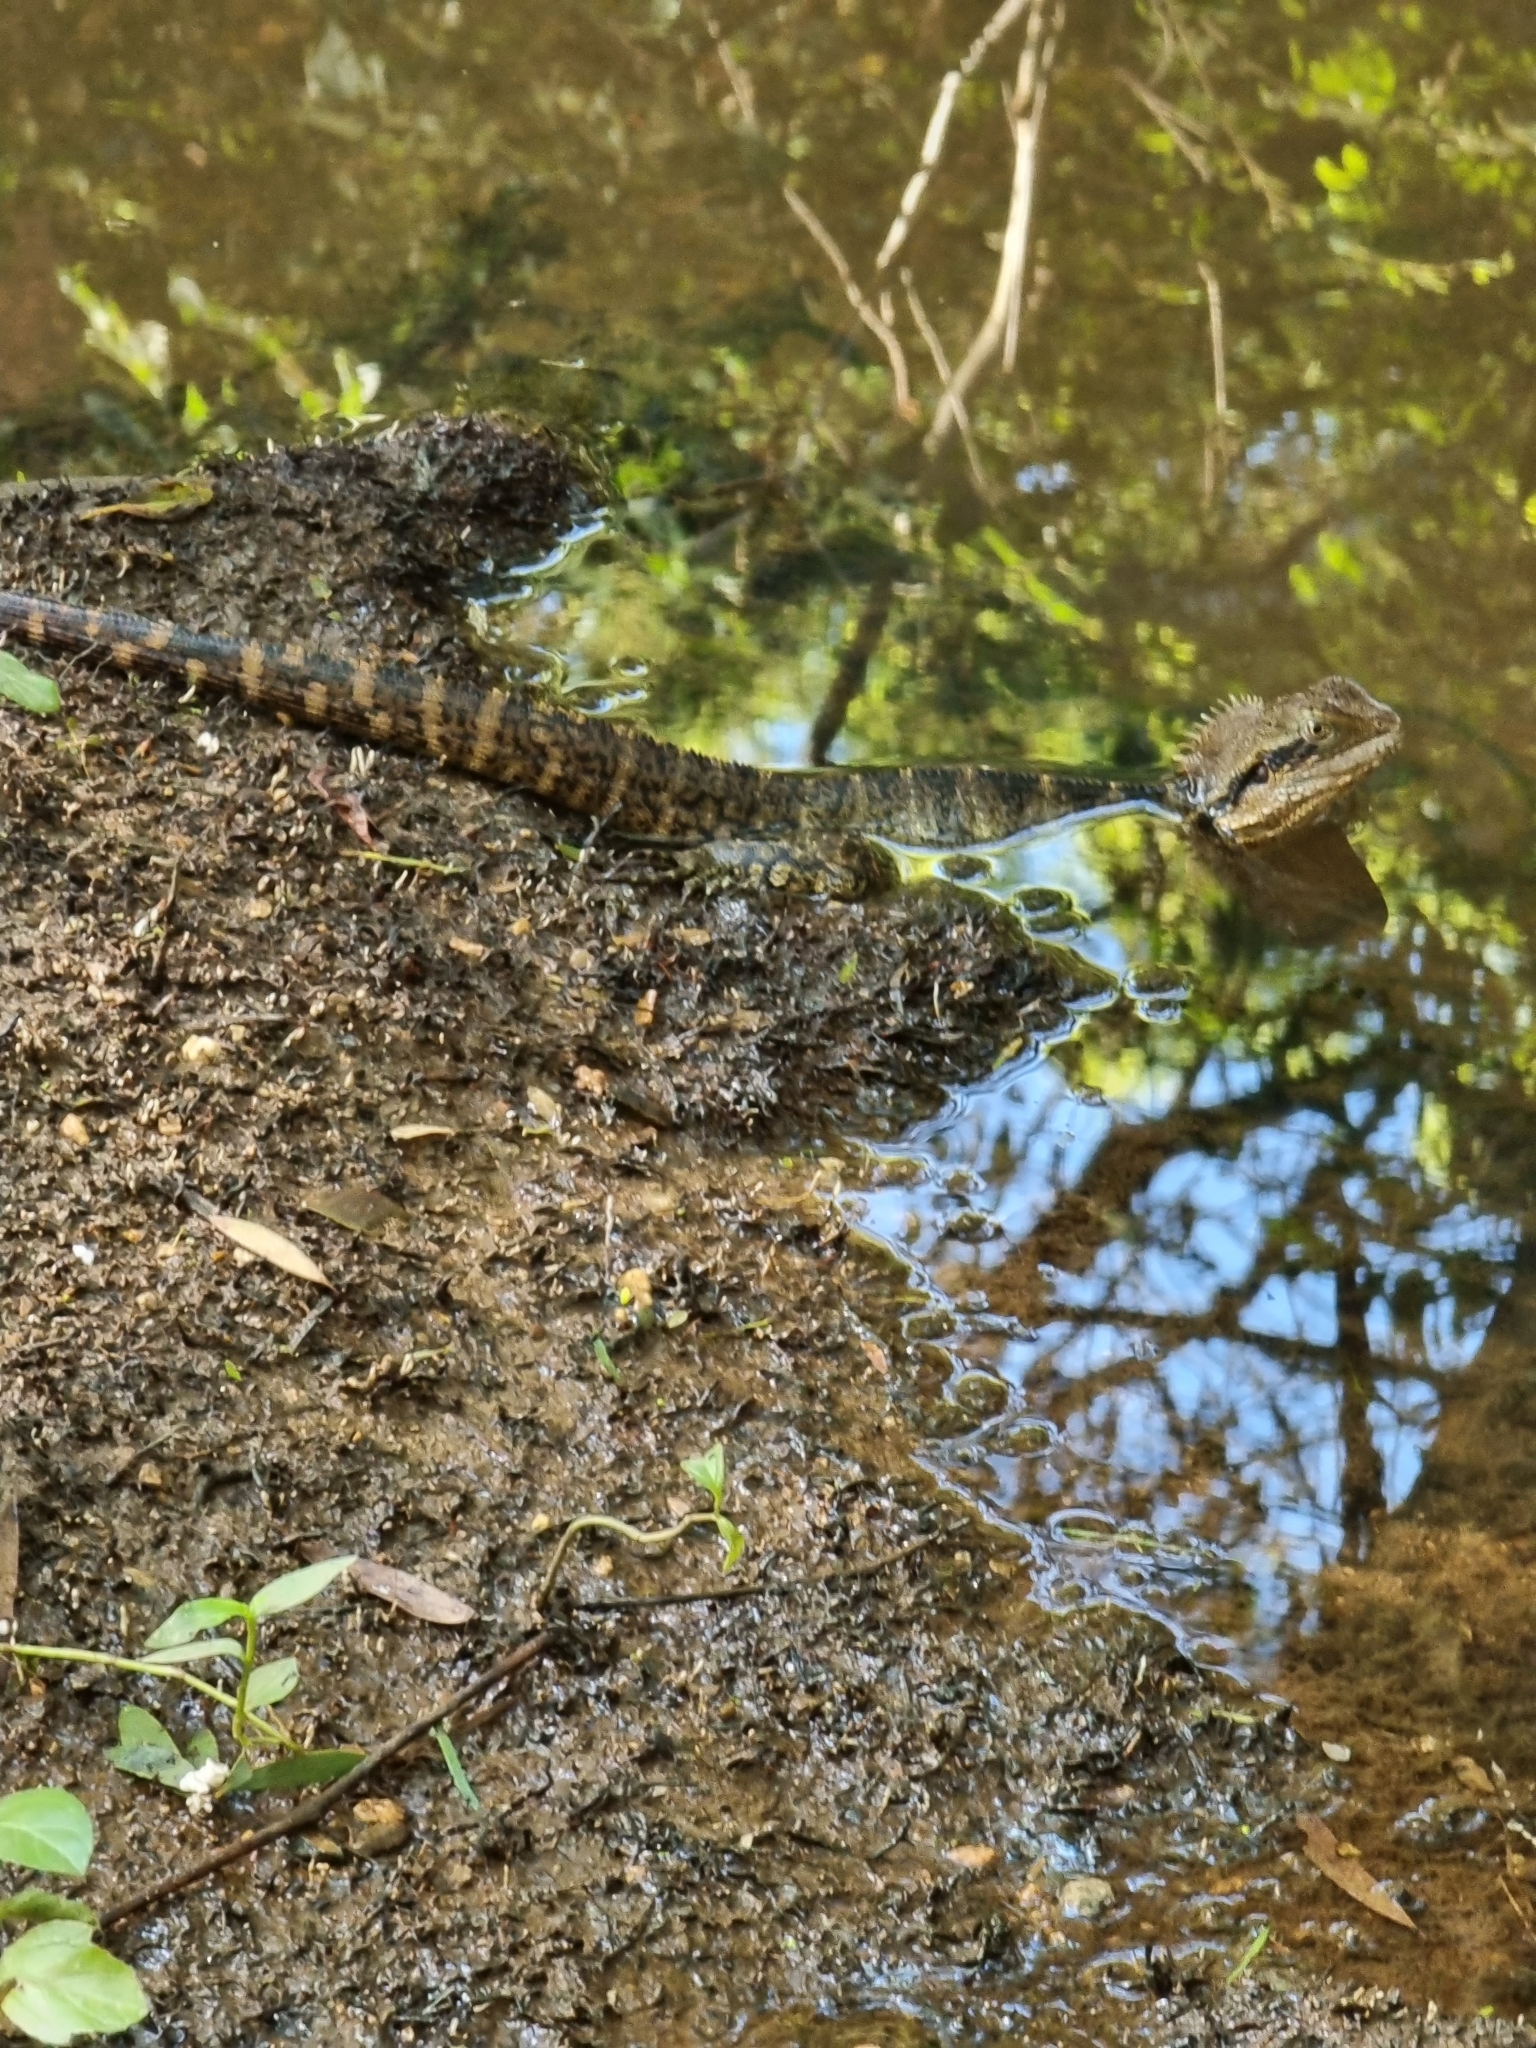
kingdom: Animalia
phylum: Chordata
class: Squamata
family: Agamidae
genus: Intellagama
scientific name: Intellagama lesueurii
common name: Eastern water dragon
